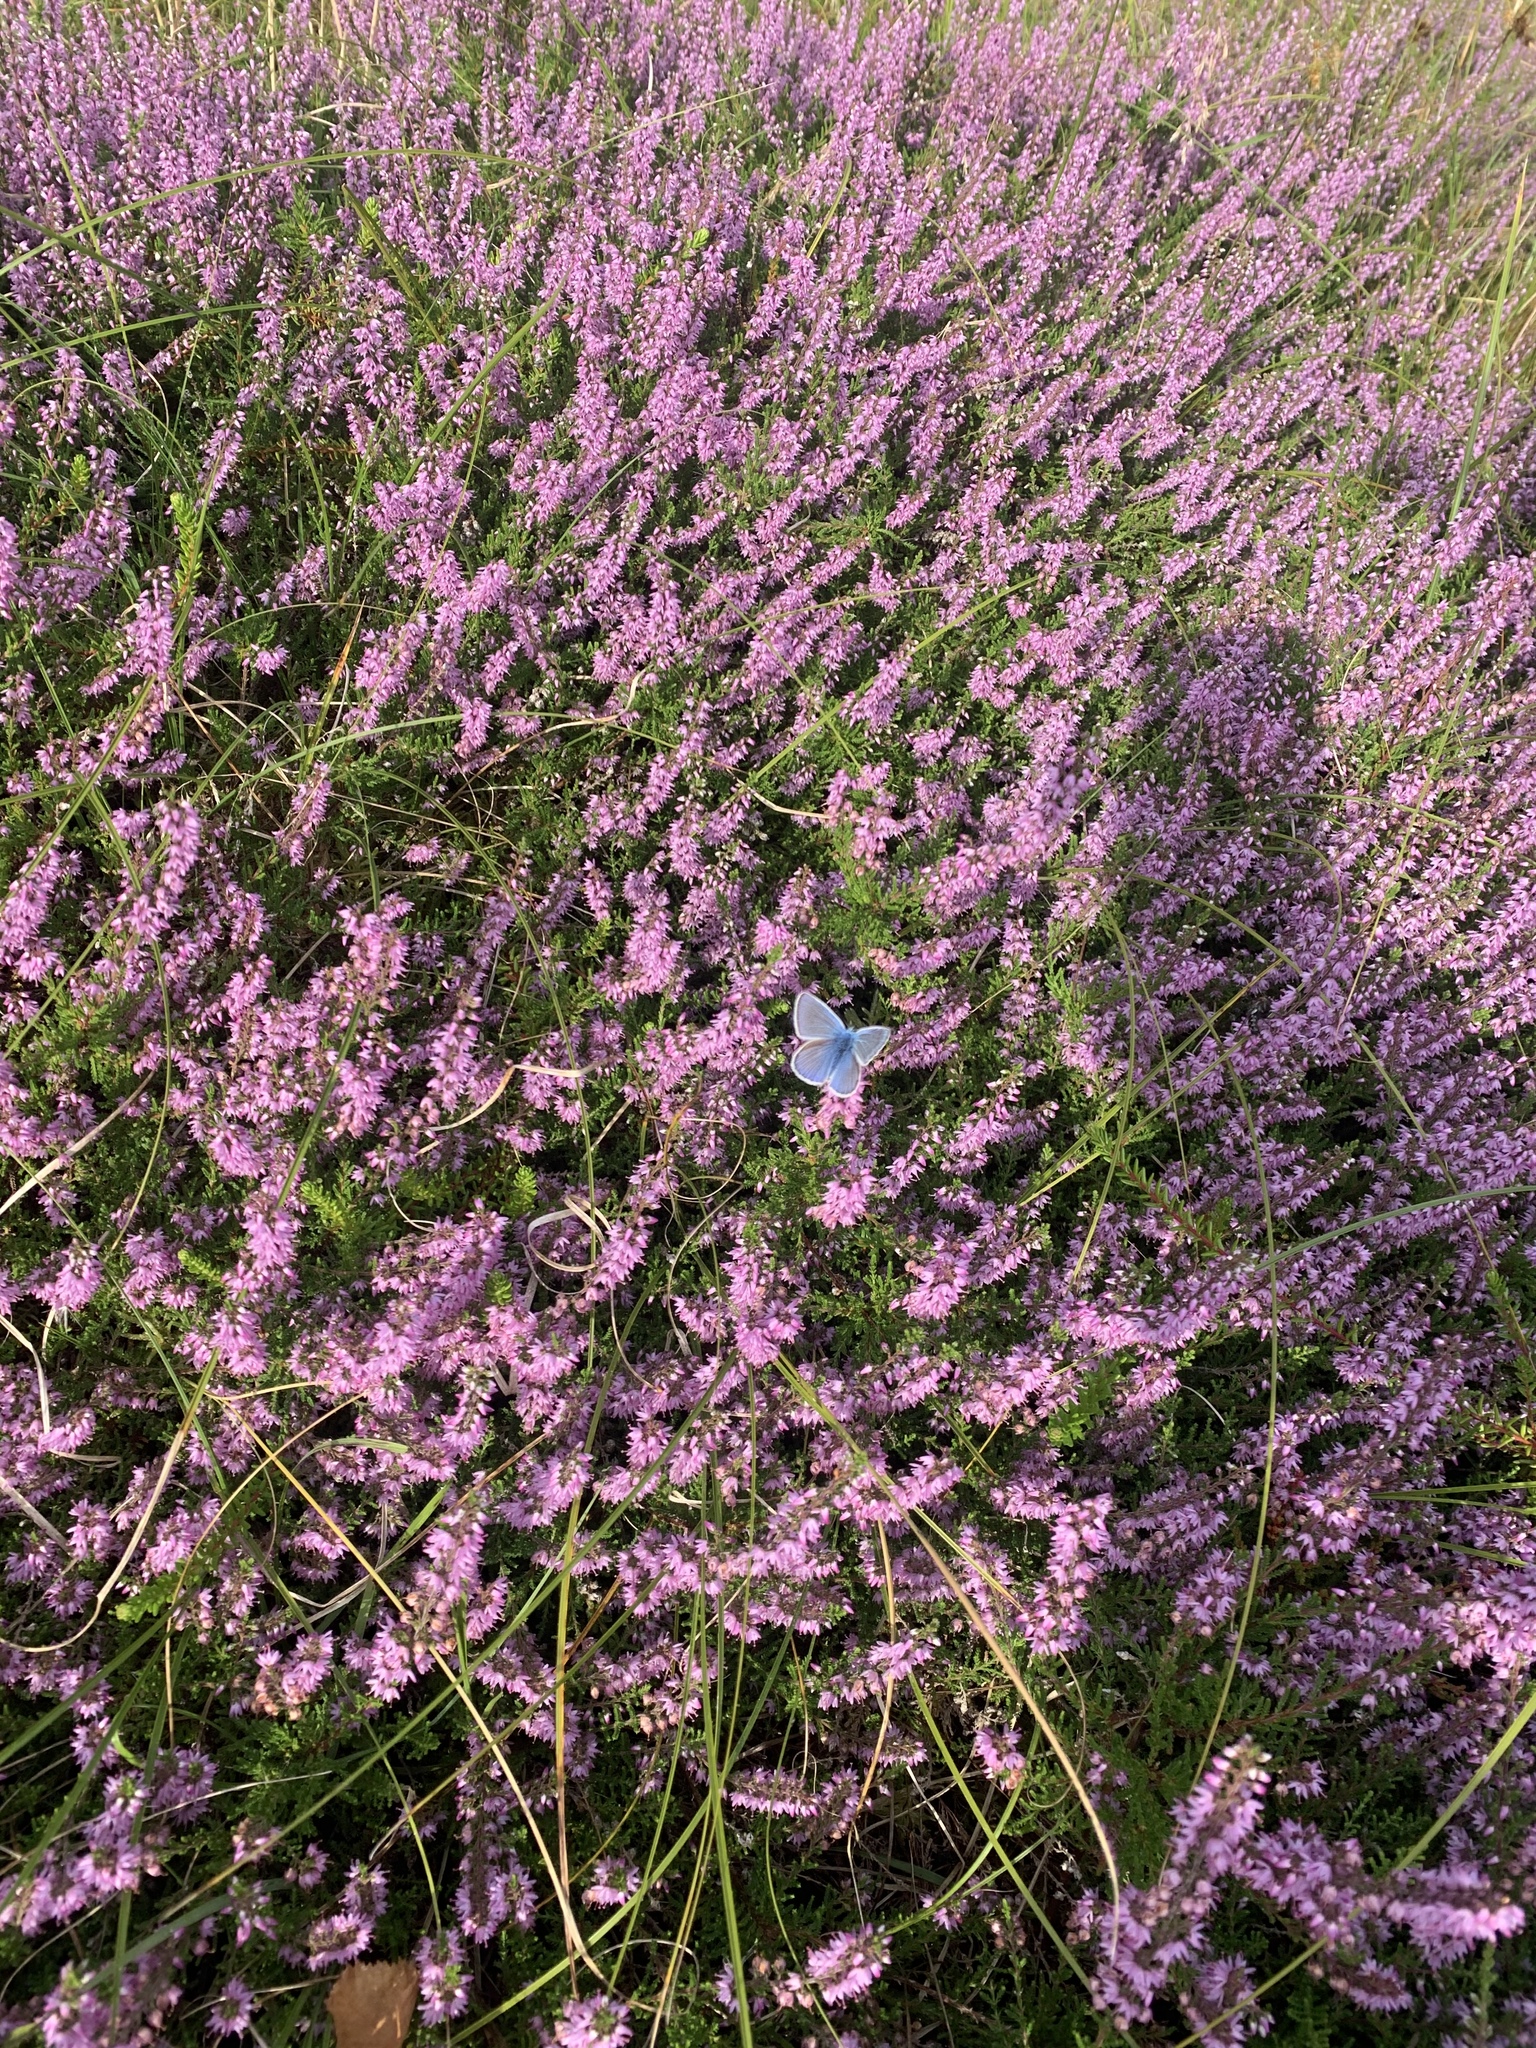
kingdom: Animalia
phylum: Arthropoda
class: Insecta
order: Lepidoptera
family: Lycaenidae
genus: Polyommatus
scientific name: Polyommatus icarus
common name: Common blue
